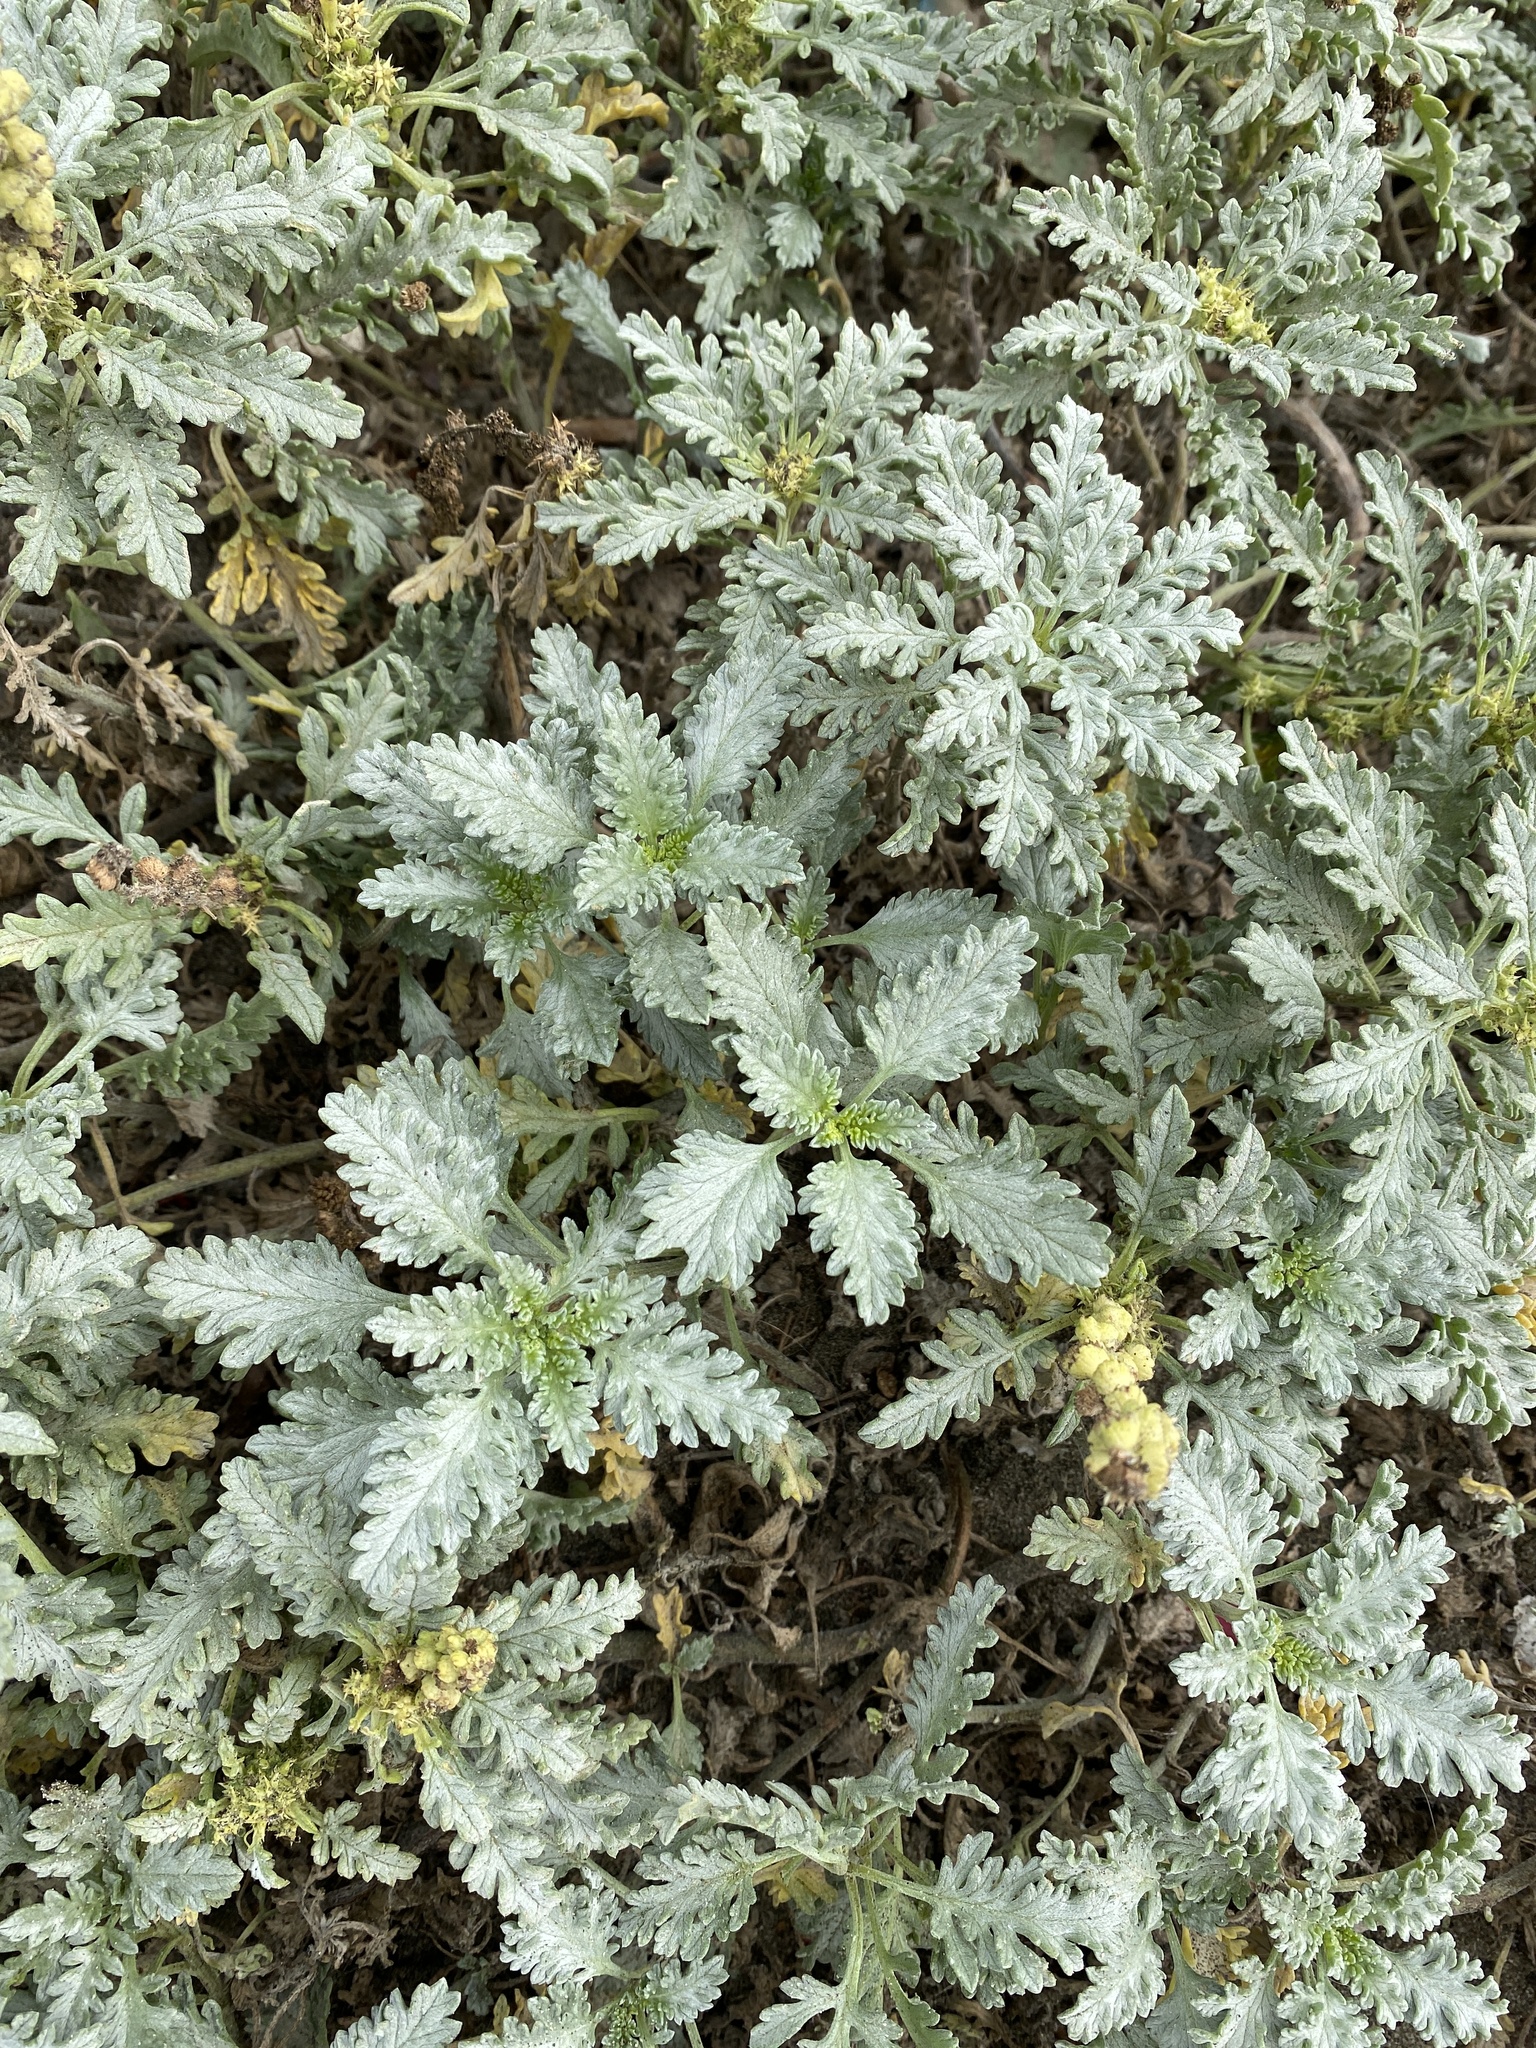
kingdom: Plantae
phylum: Tracheophyta
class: Magnoliopsida
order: Asterales
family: Asteraceae
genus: Ambrosia
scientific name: Ambrosia chamissonis
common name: Beachbur
